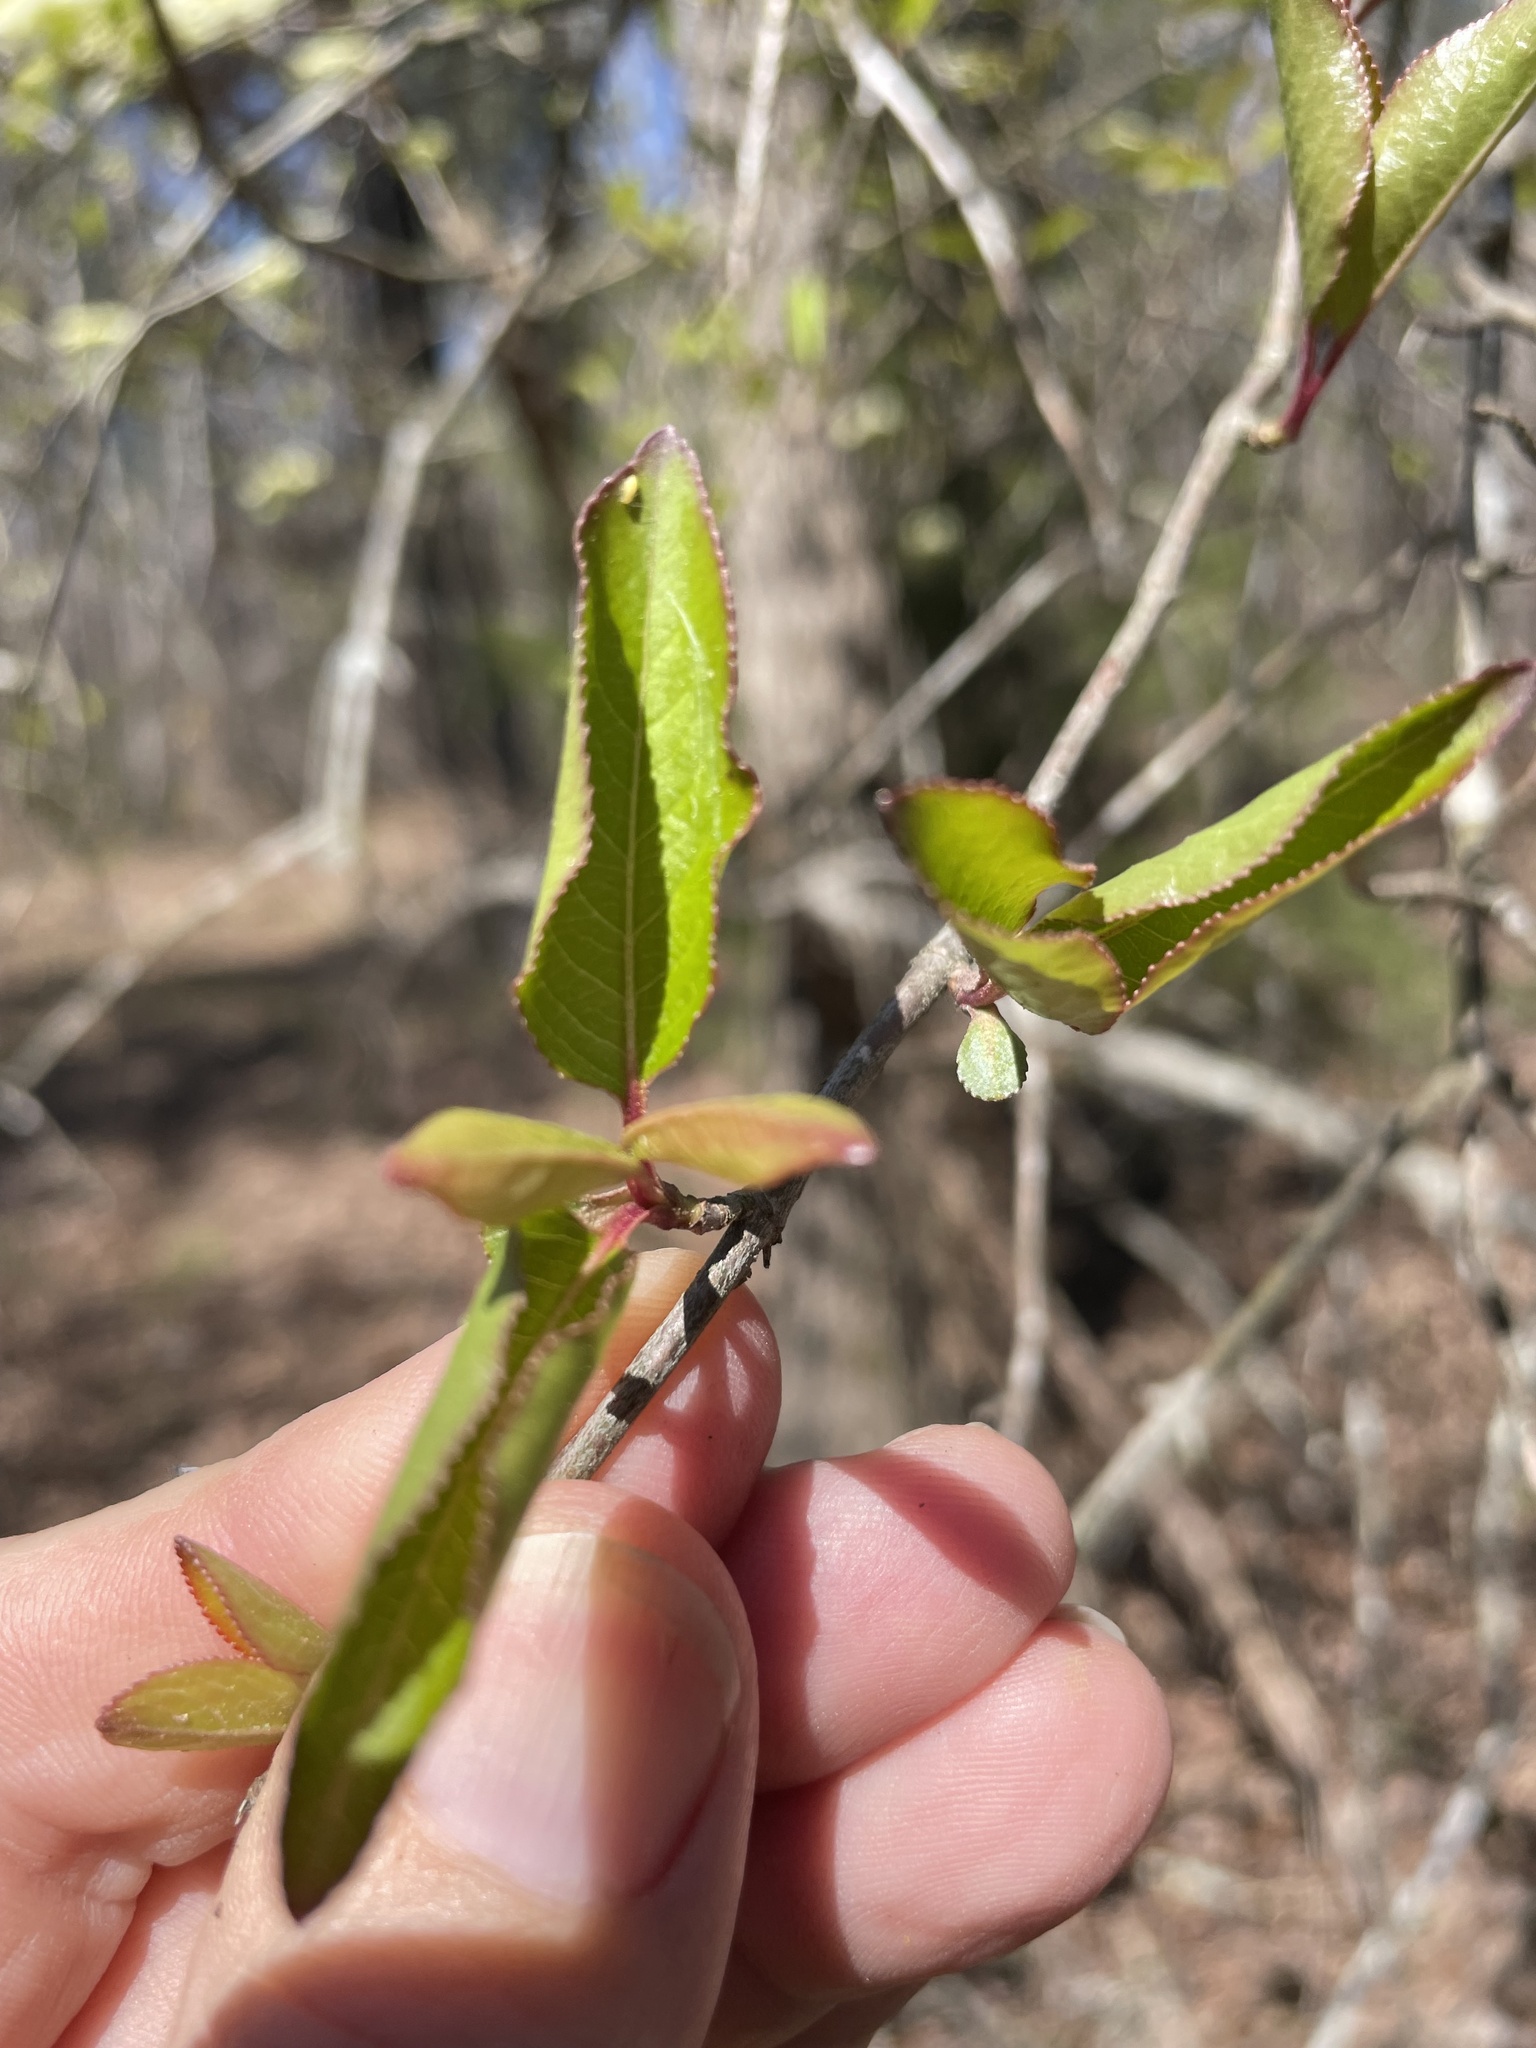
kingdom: Plantae
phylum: Tracheophyta
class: Magnoliopsida
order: Dipsacales
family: Viburnaceae
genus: Viburnum
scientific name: Viburnum prunifolium
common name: Black haw
